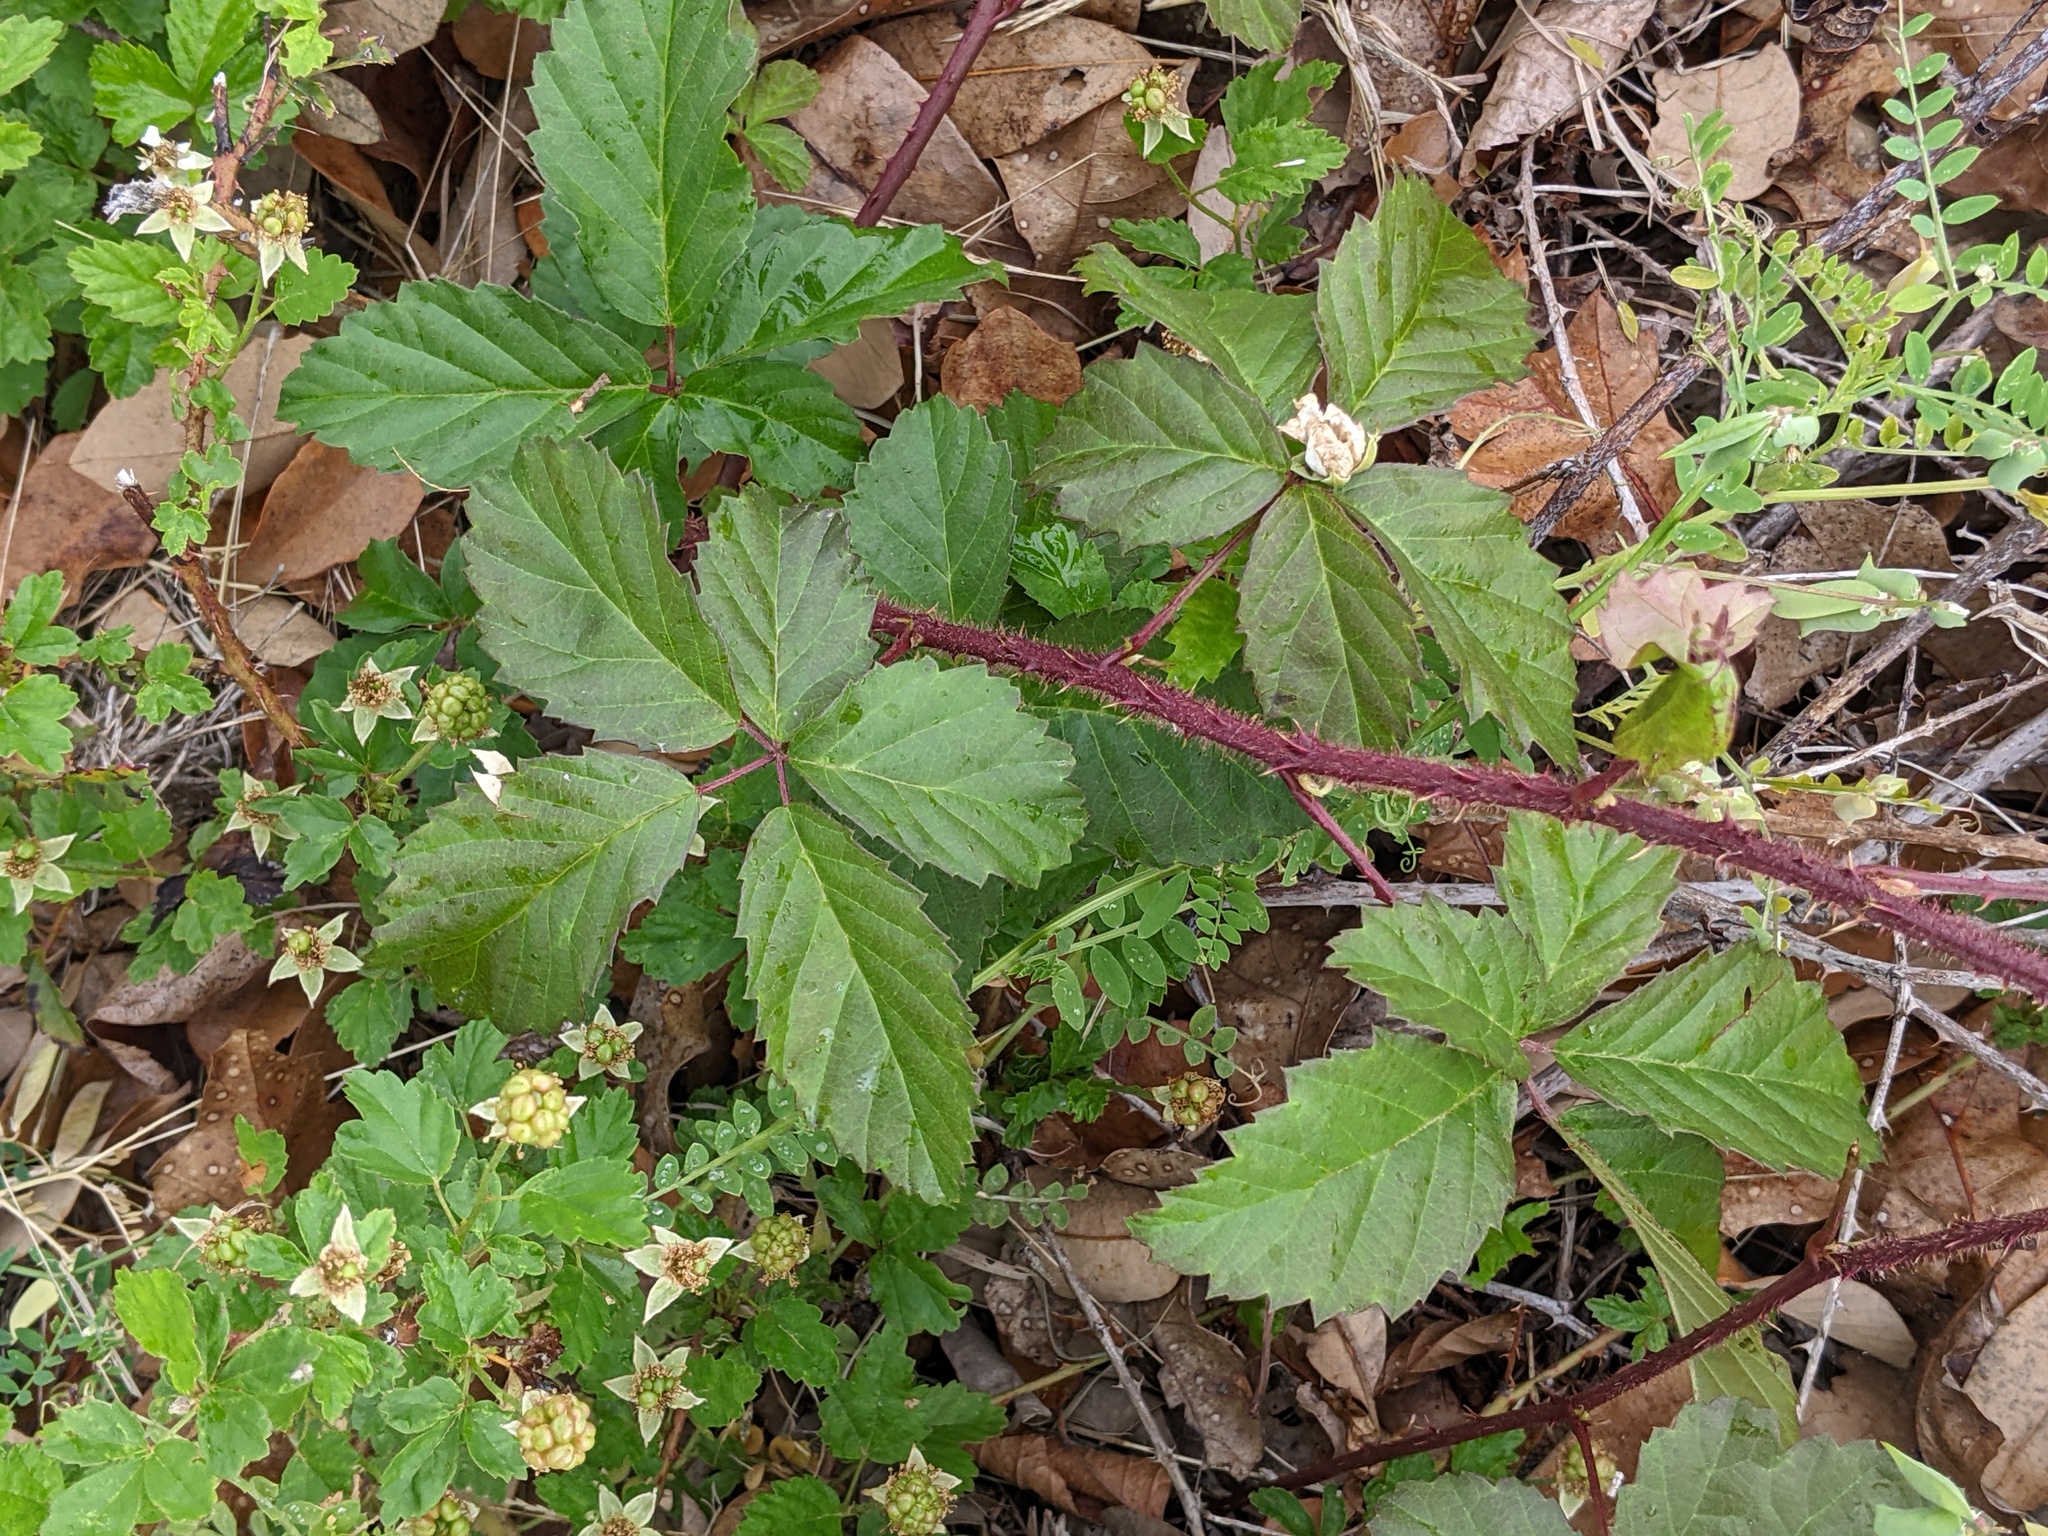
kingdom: Plantae
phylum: Tracheophyta
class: Magnoliopsida
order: Rosales
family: Rosaceae
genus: Rubus
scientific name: Rubus trivialis
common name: Southern dewberry
